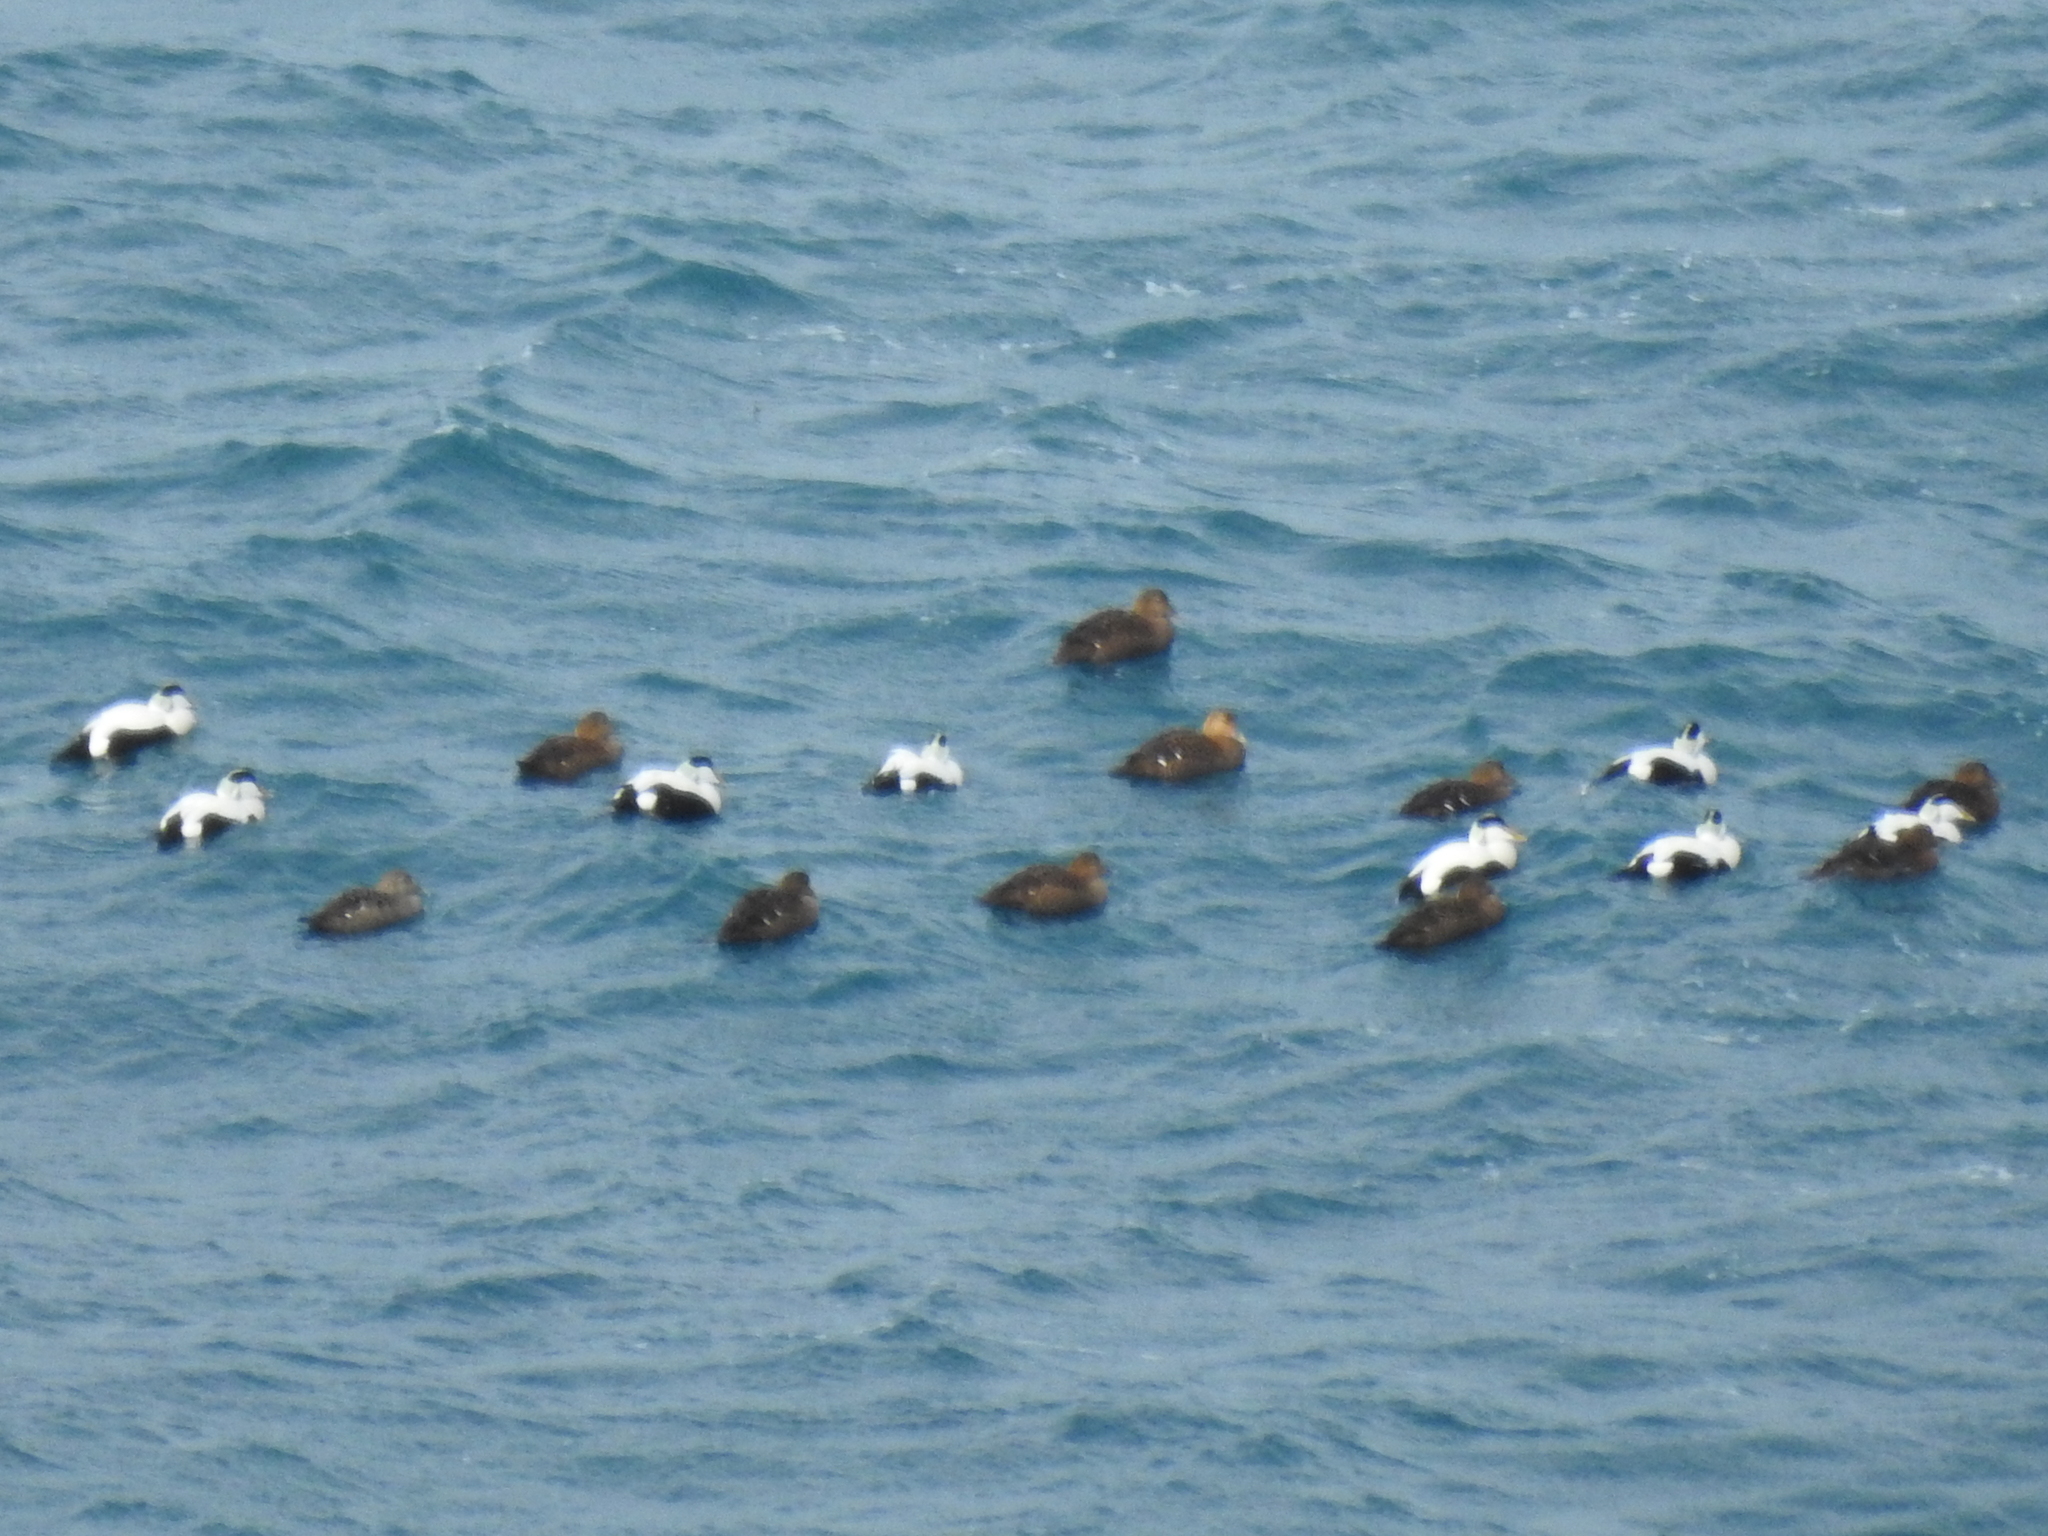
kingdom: Animalia
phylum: Chordata
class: Aves
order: Anseriformes
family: Anatidae
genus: Somateria
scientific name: Somateria mollissima
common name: Common eider
